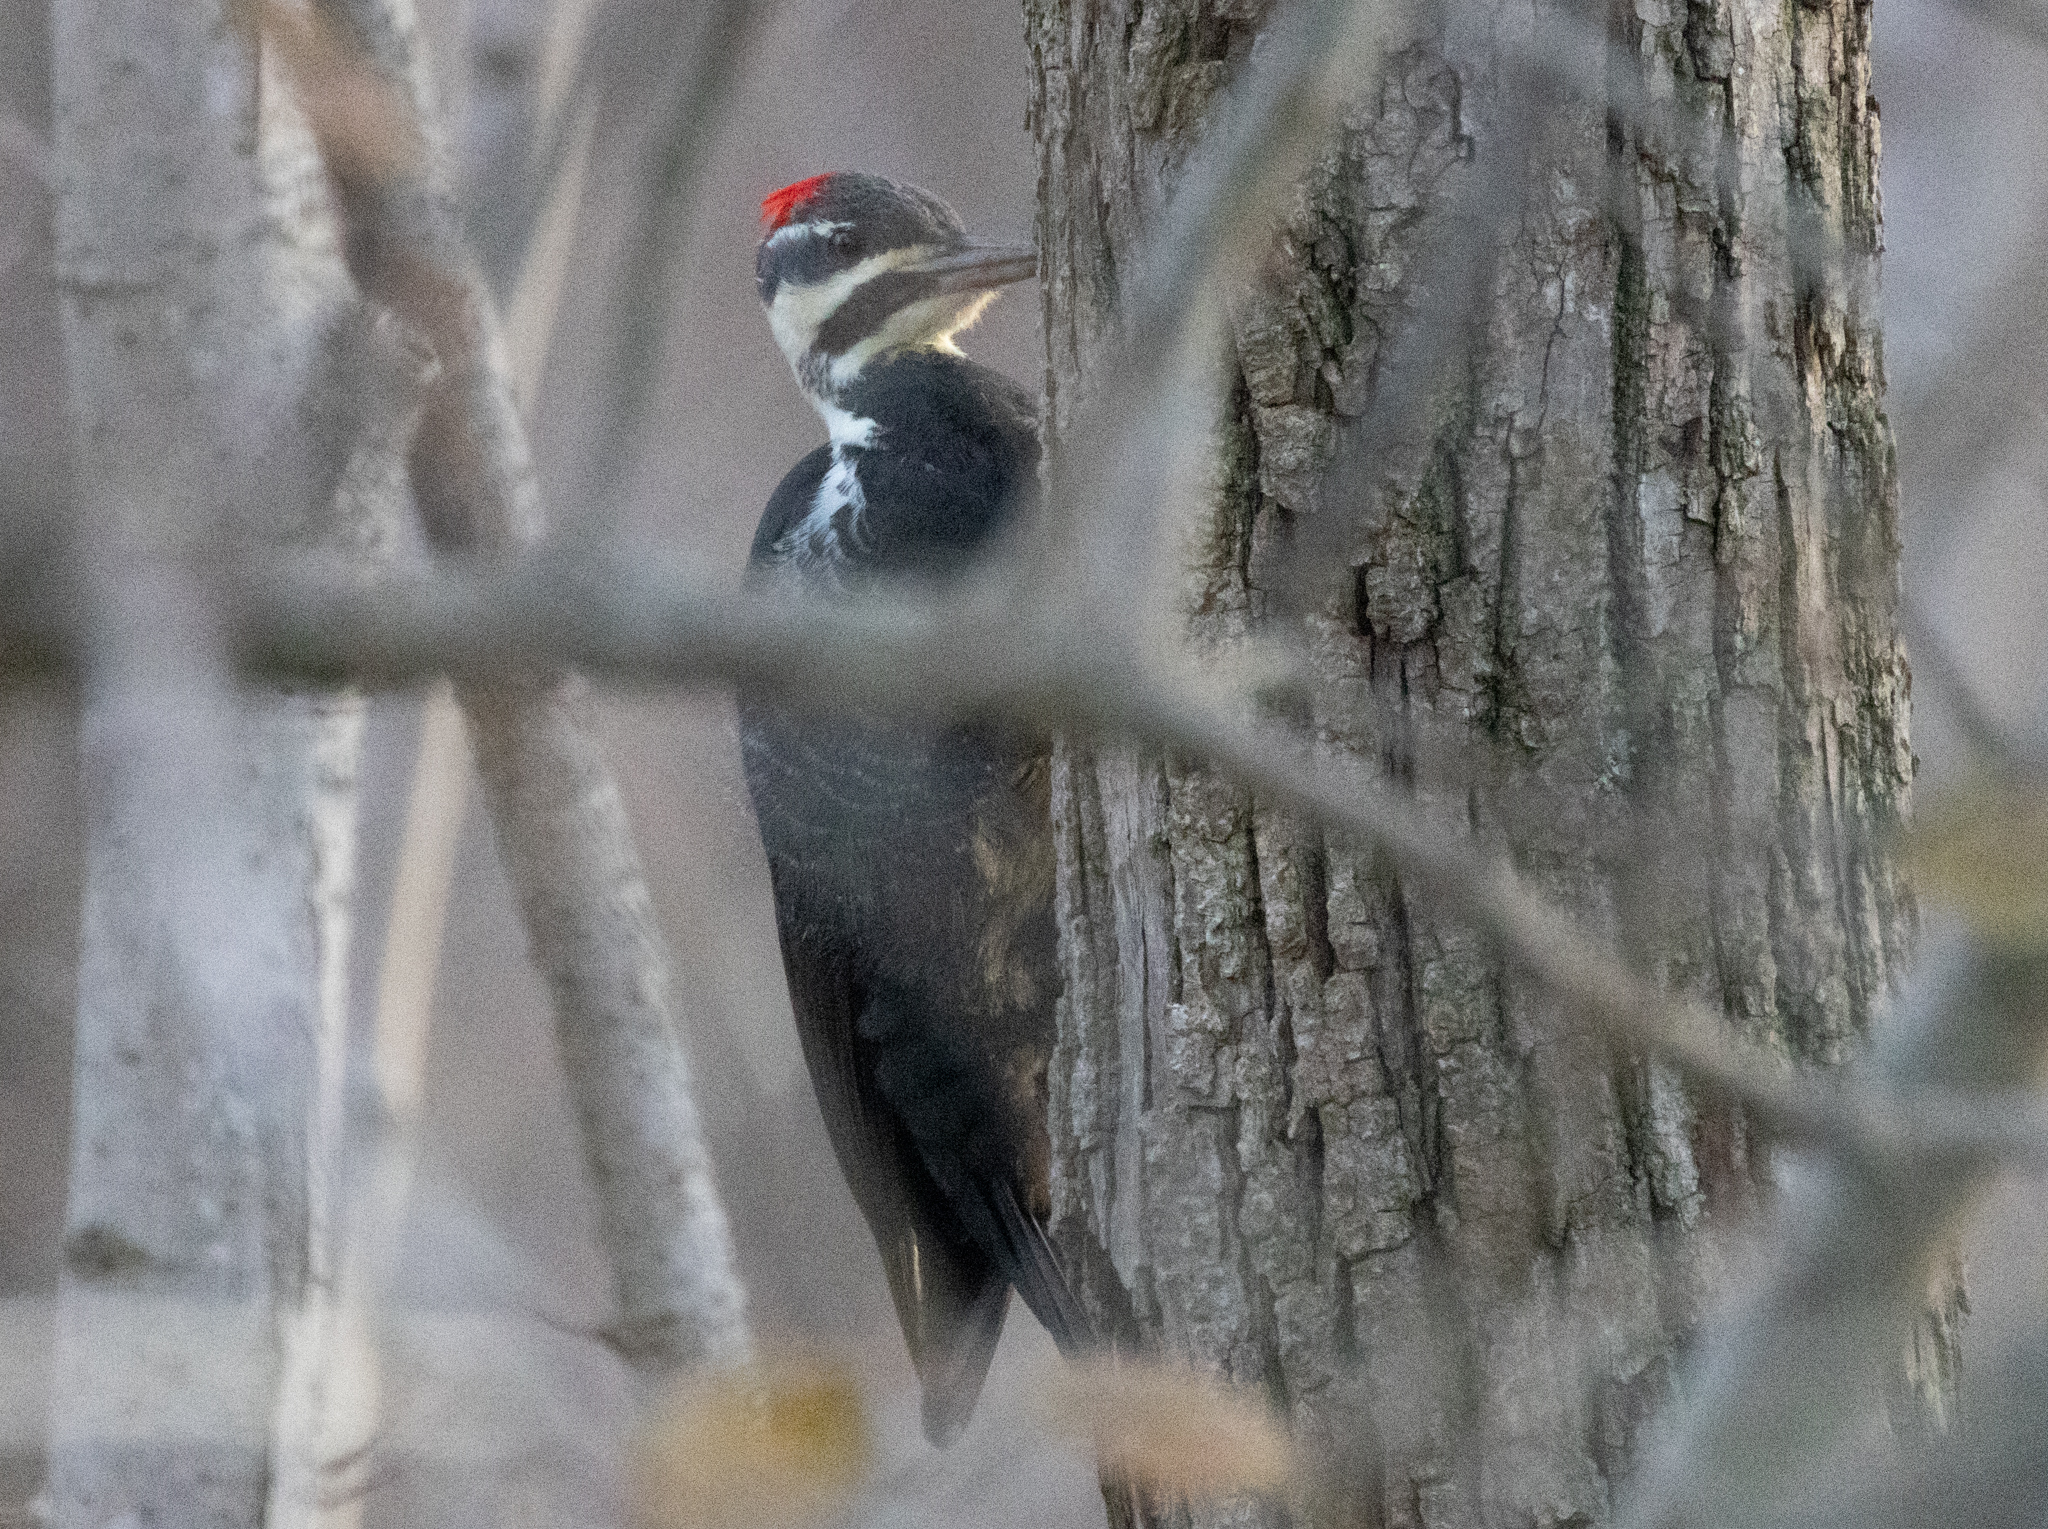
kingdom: Animalia
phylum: Chordata
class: Aves
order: Piciformes
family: Picidae
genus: Dryocopus
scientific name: Dryocopus pileatus
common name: Pileated woodpecker
